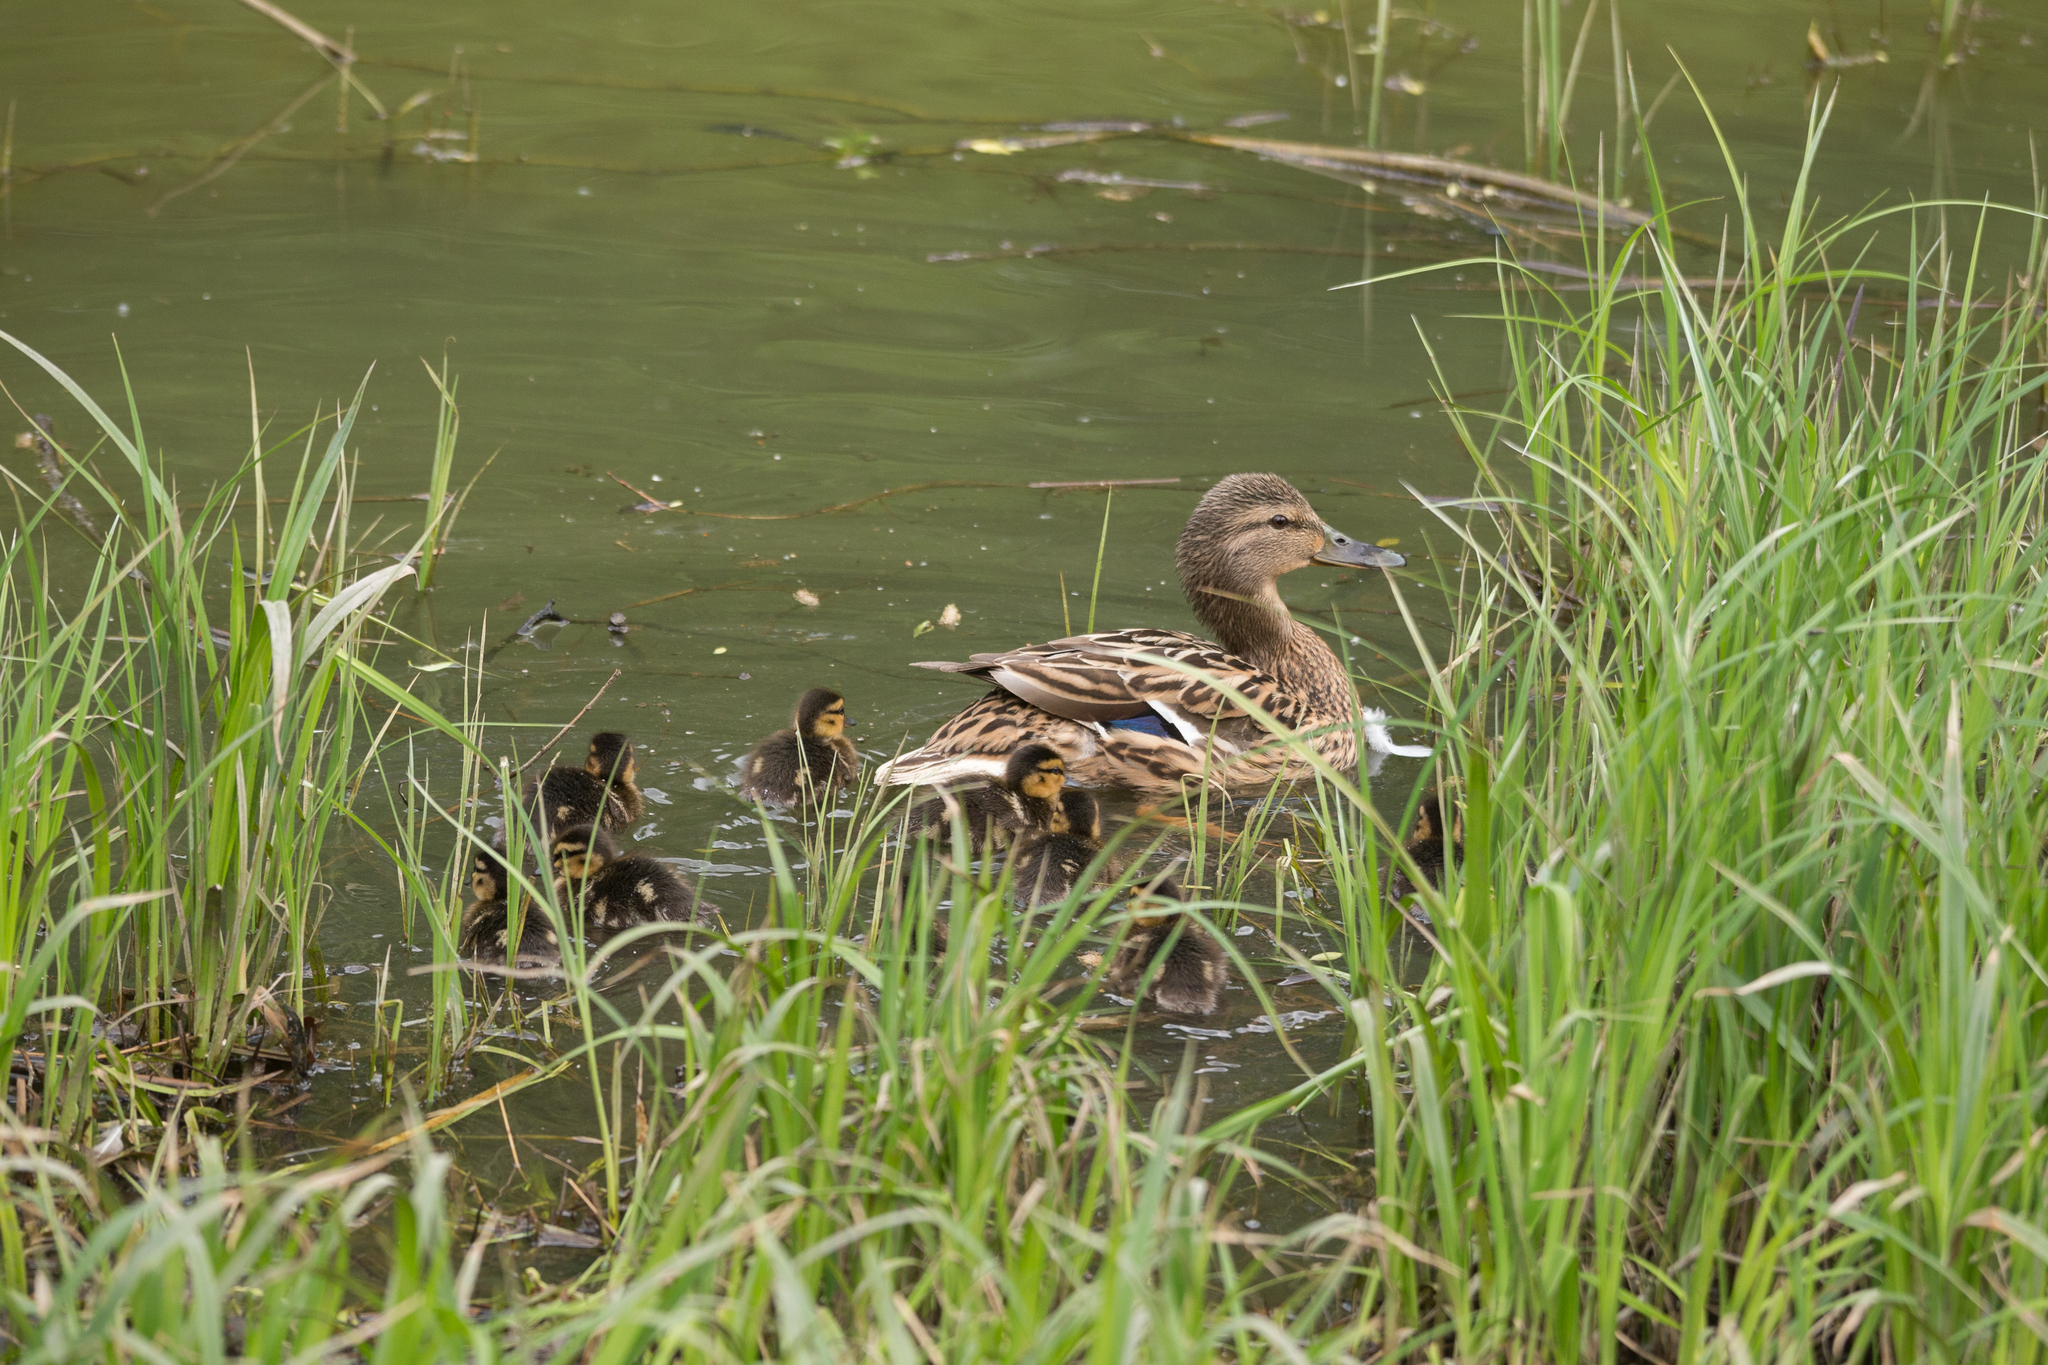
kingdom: Animalia
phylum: Chordata
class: Aves
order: Anseriformes
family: Anatidae
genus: Anas
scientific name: Anas platyrhynchos
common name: Mallard
